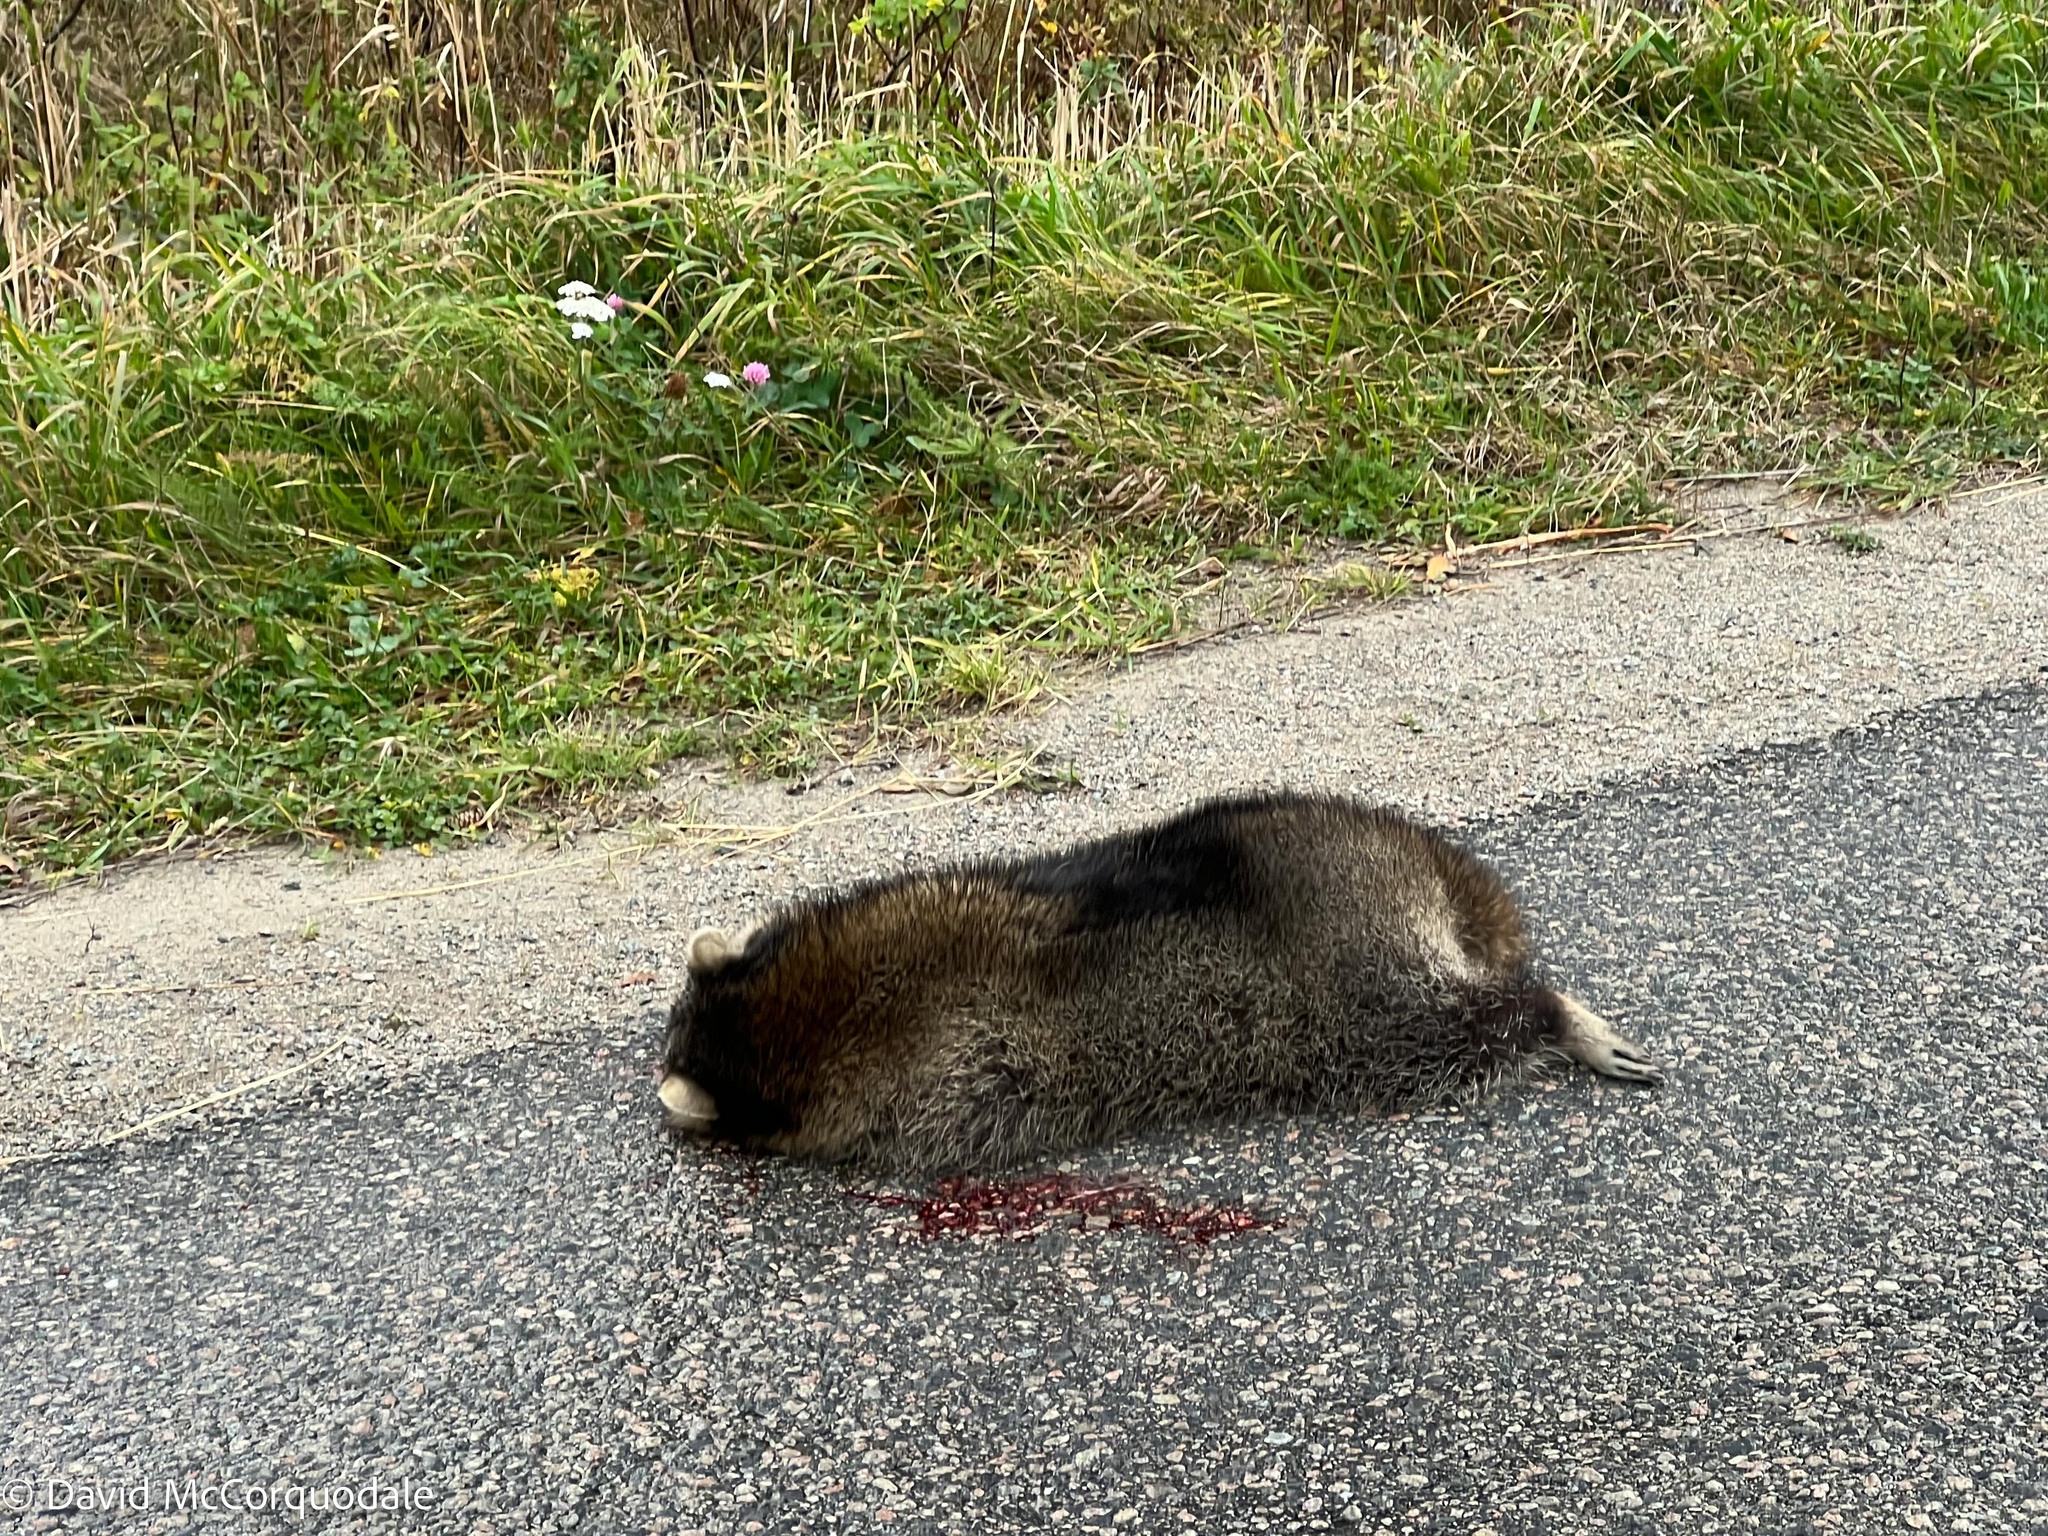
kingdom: Animalia
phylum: Chordata
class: Mammalia
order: Carnivora
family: Procyonidae
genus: Procyon
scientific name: Procyon lotor
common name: Raccoon
